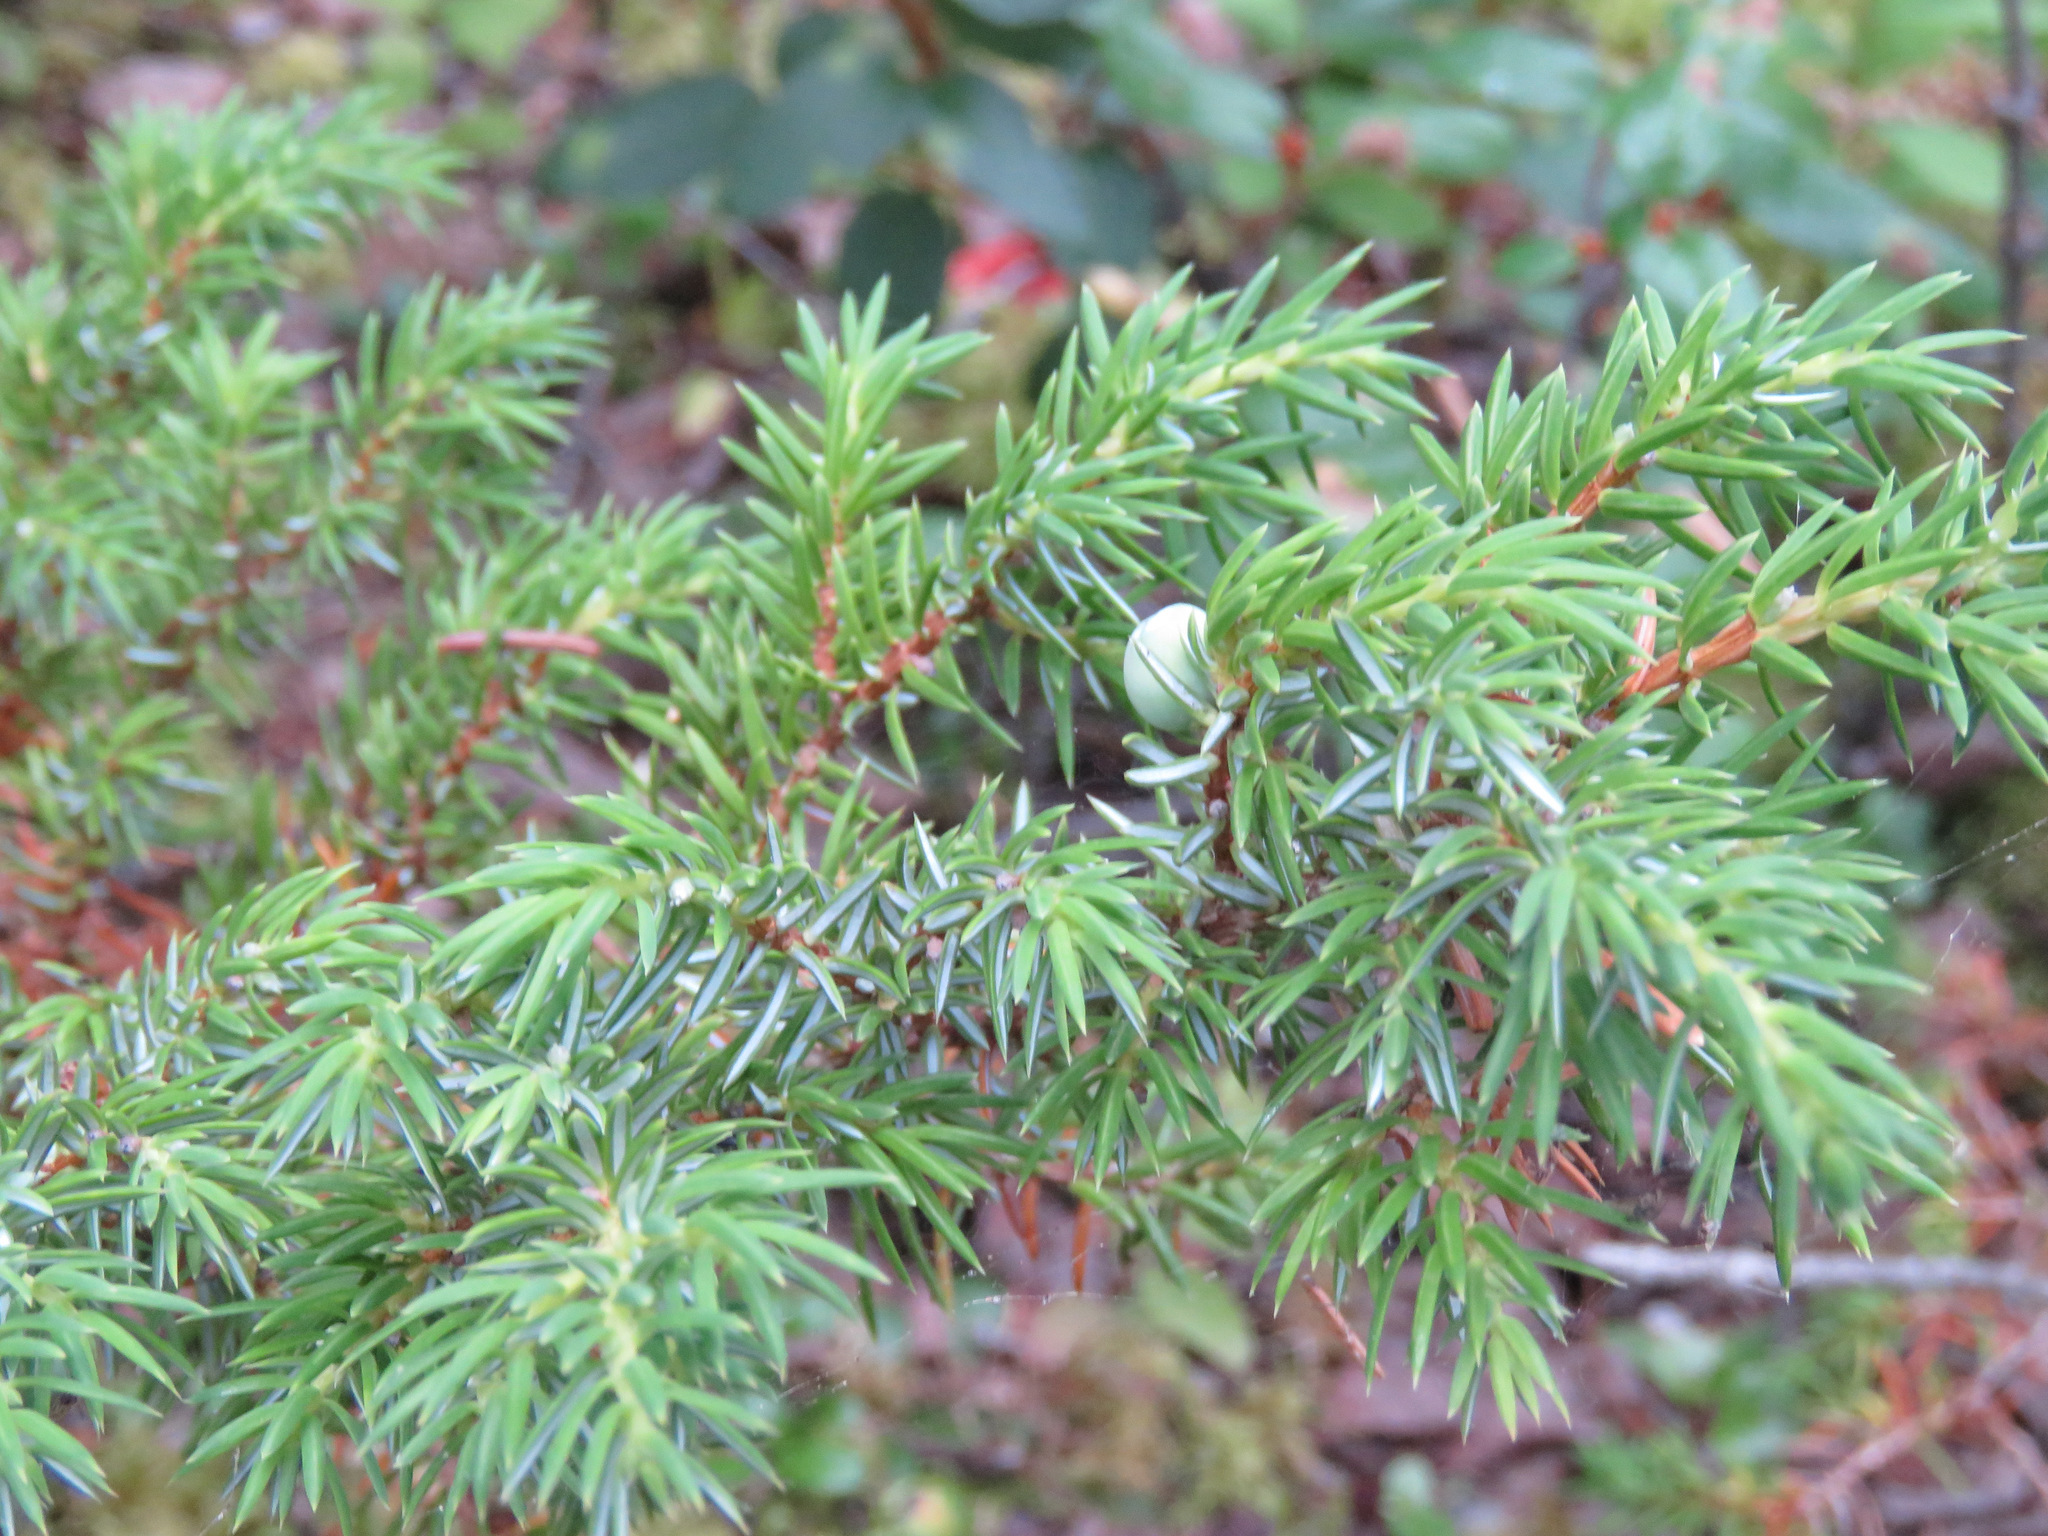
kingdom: Plantae
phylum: Tracheophyta
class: Pinopsida
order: Pinales
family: Cupressaceae
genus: Juniperus
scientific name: Juniperus communis
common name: Common juniper
